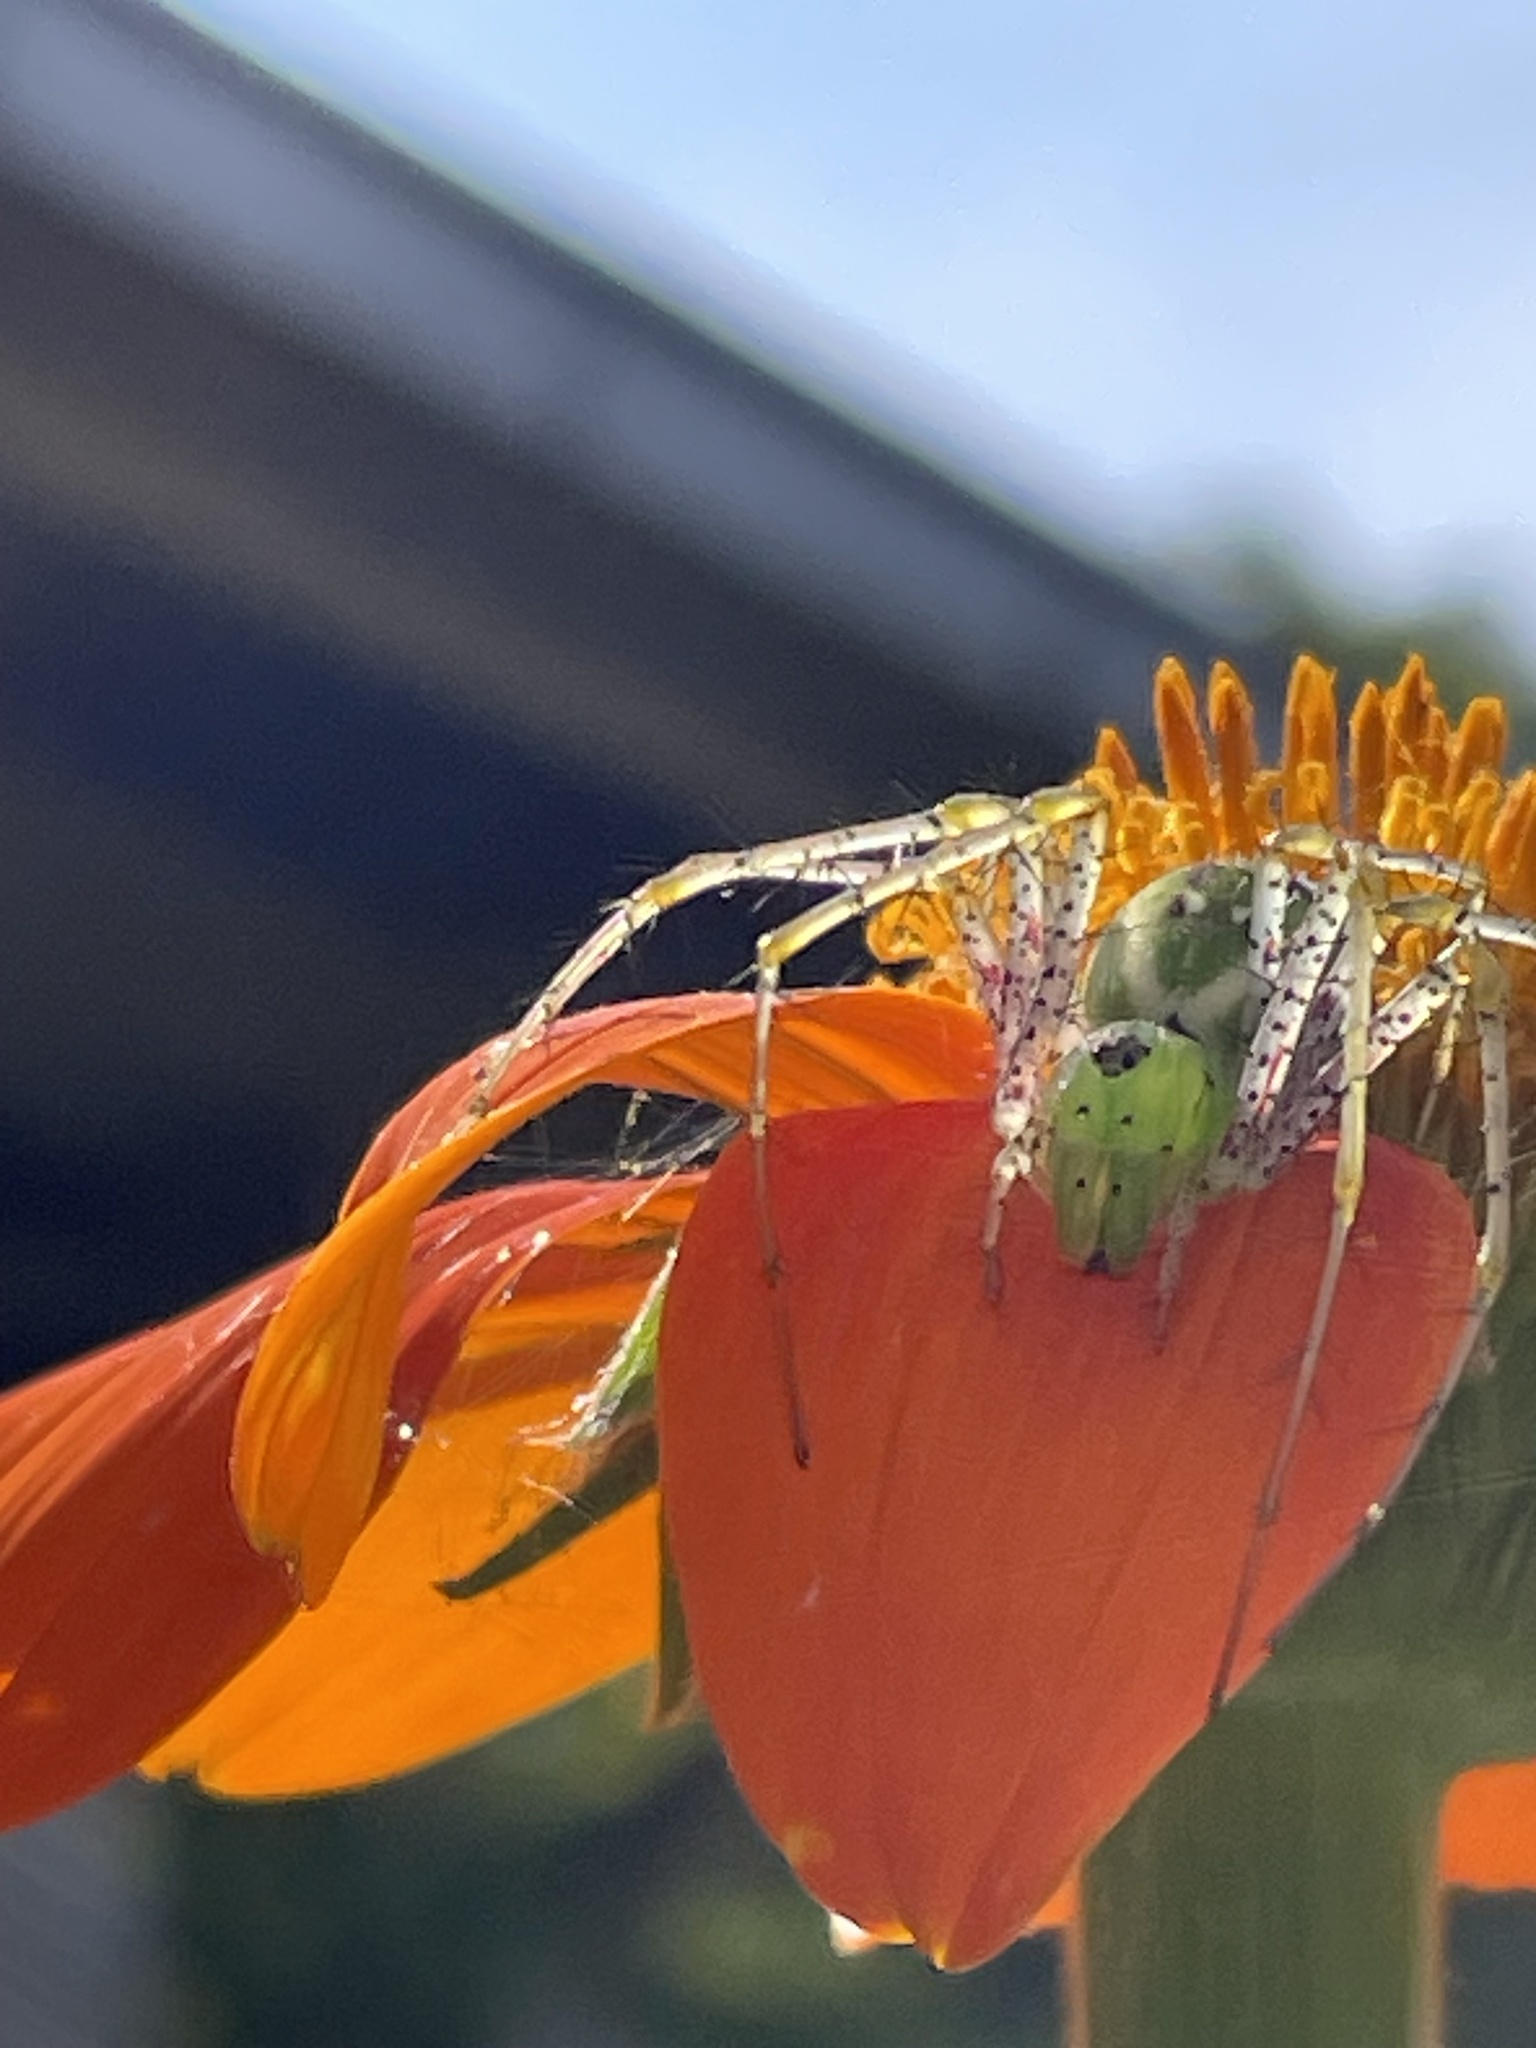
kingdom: Animalia
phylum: Arthropoda
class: Arachnida
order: Araneae
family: Oxyopidae
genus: Peucetia
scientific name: Peucetia viridans
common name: Lynx spiders
